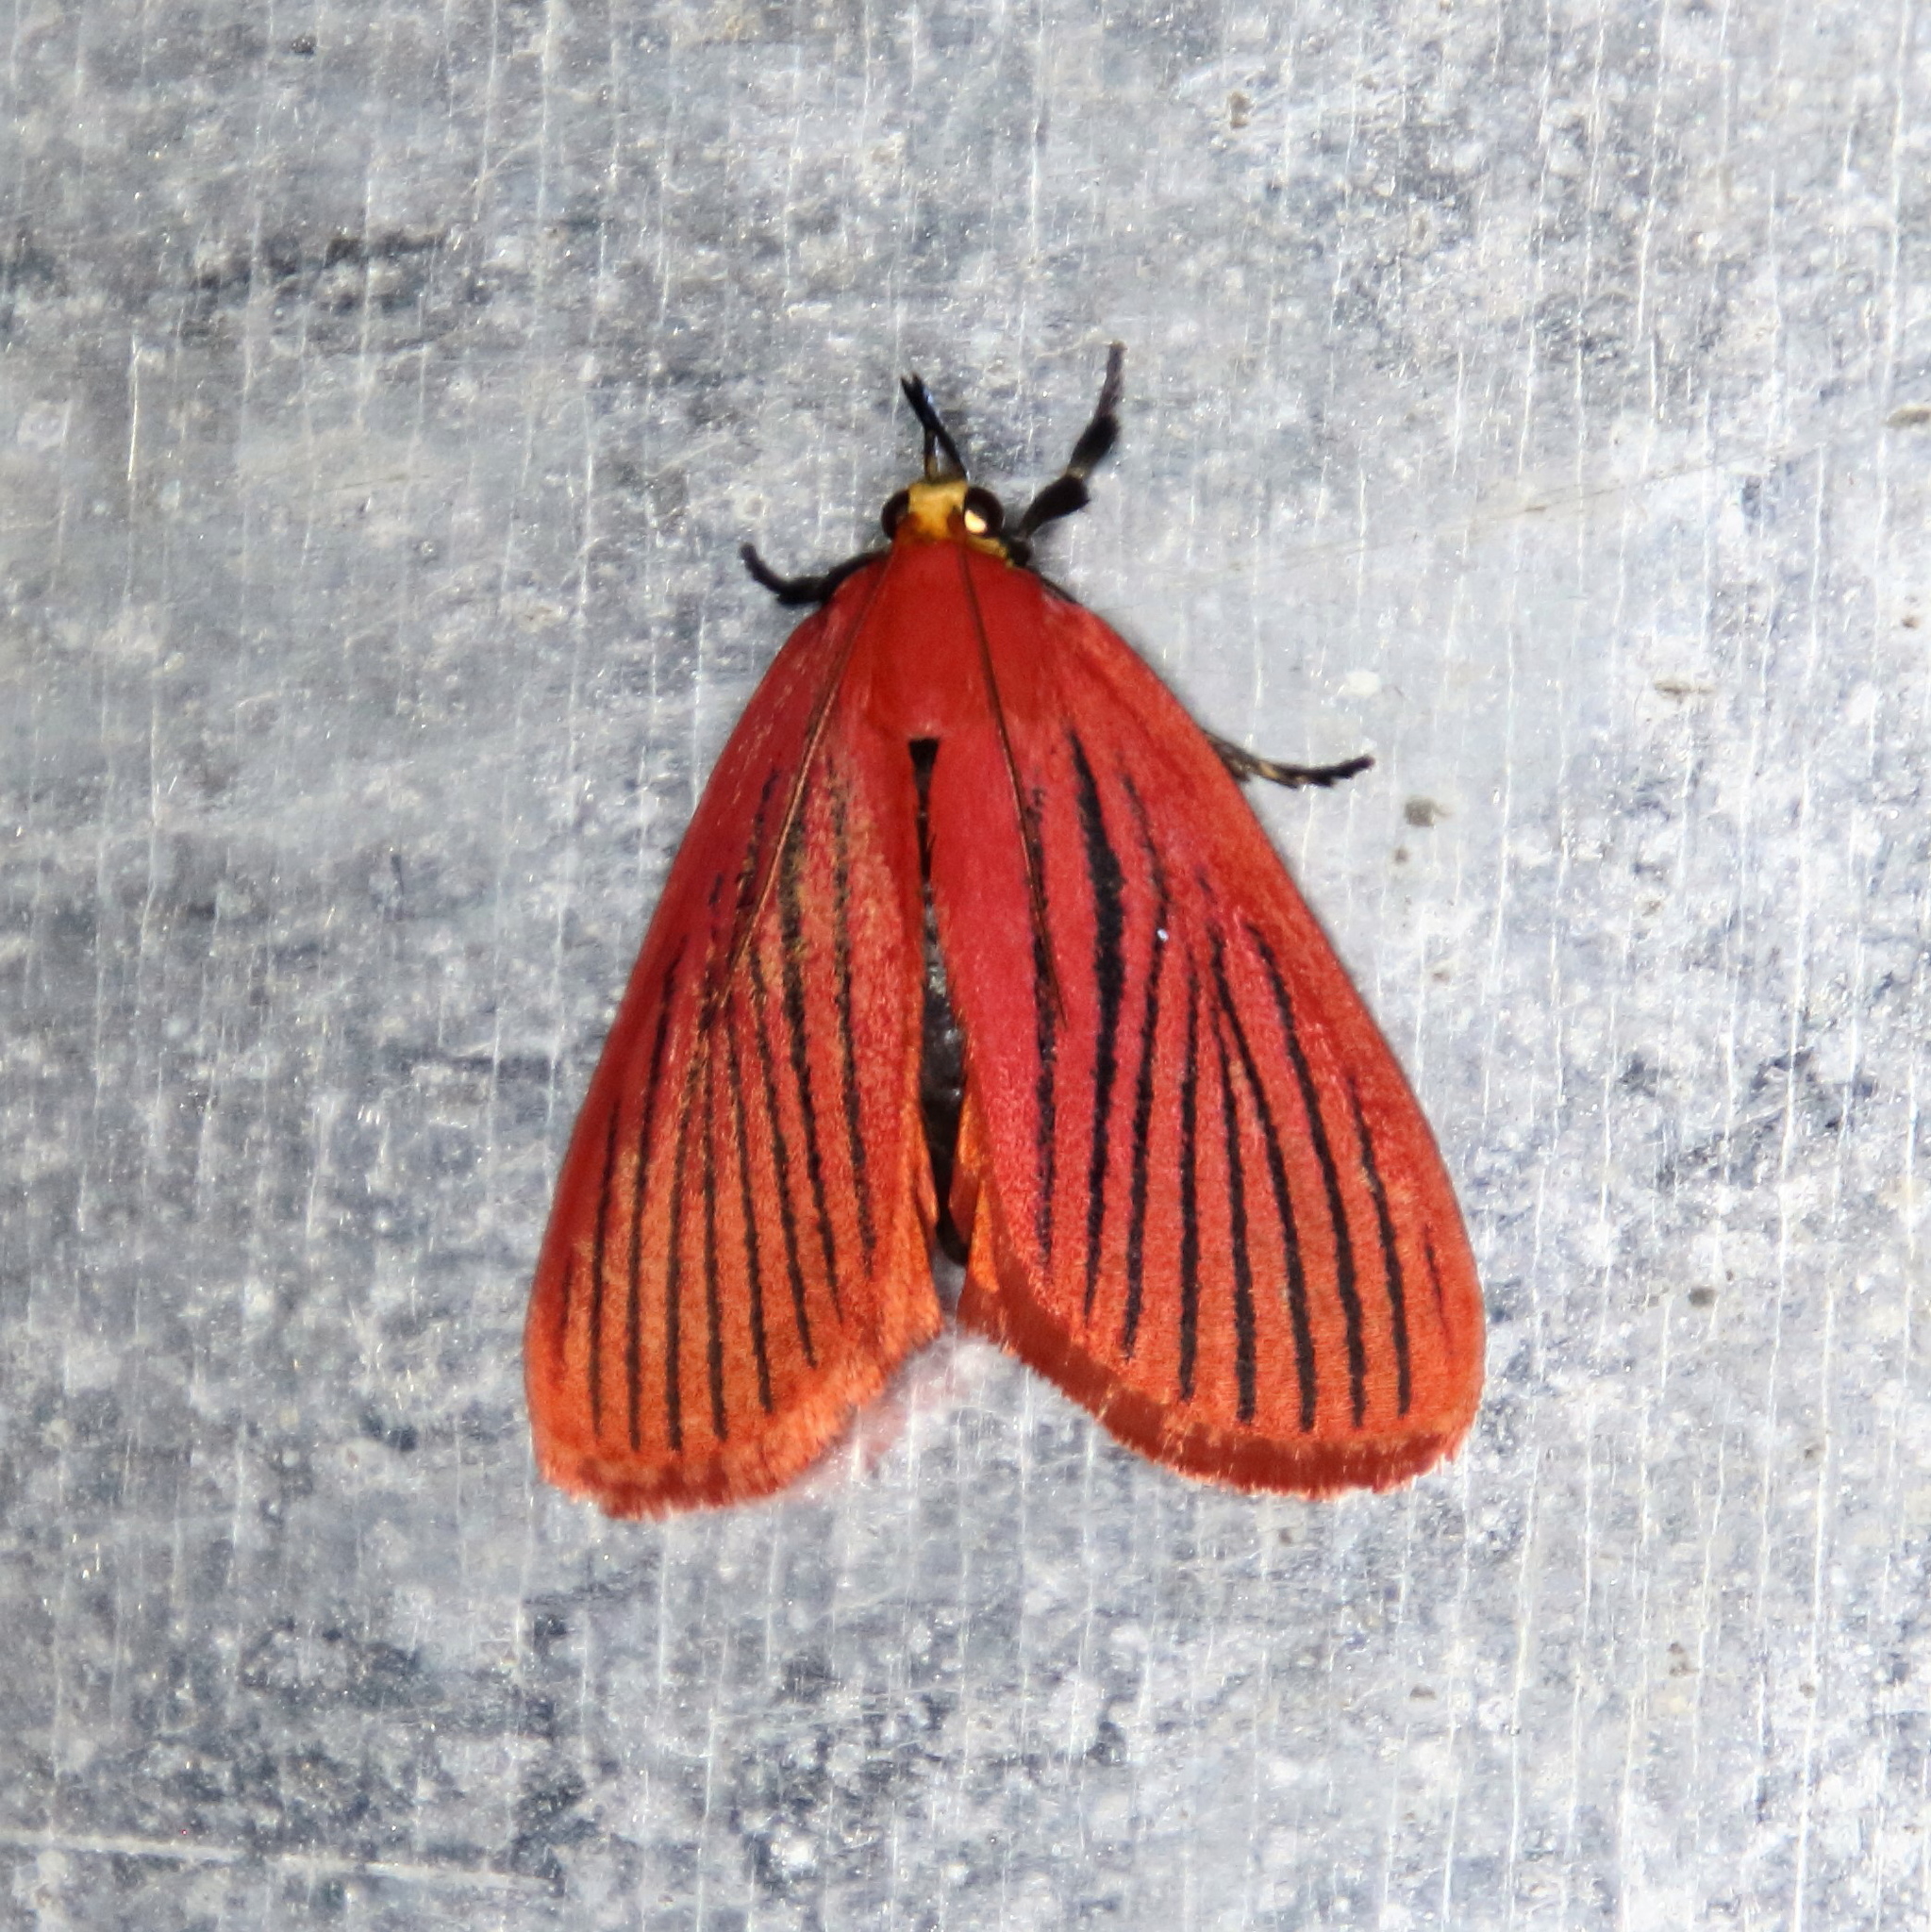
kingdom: Animalia
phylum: Arthropoda
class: Insecta
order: Lepidoptera
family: Pyralidae
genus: Arctioblepsis
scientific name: Arctioblepsis rubida
